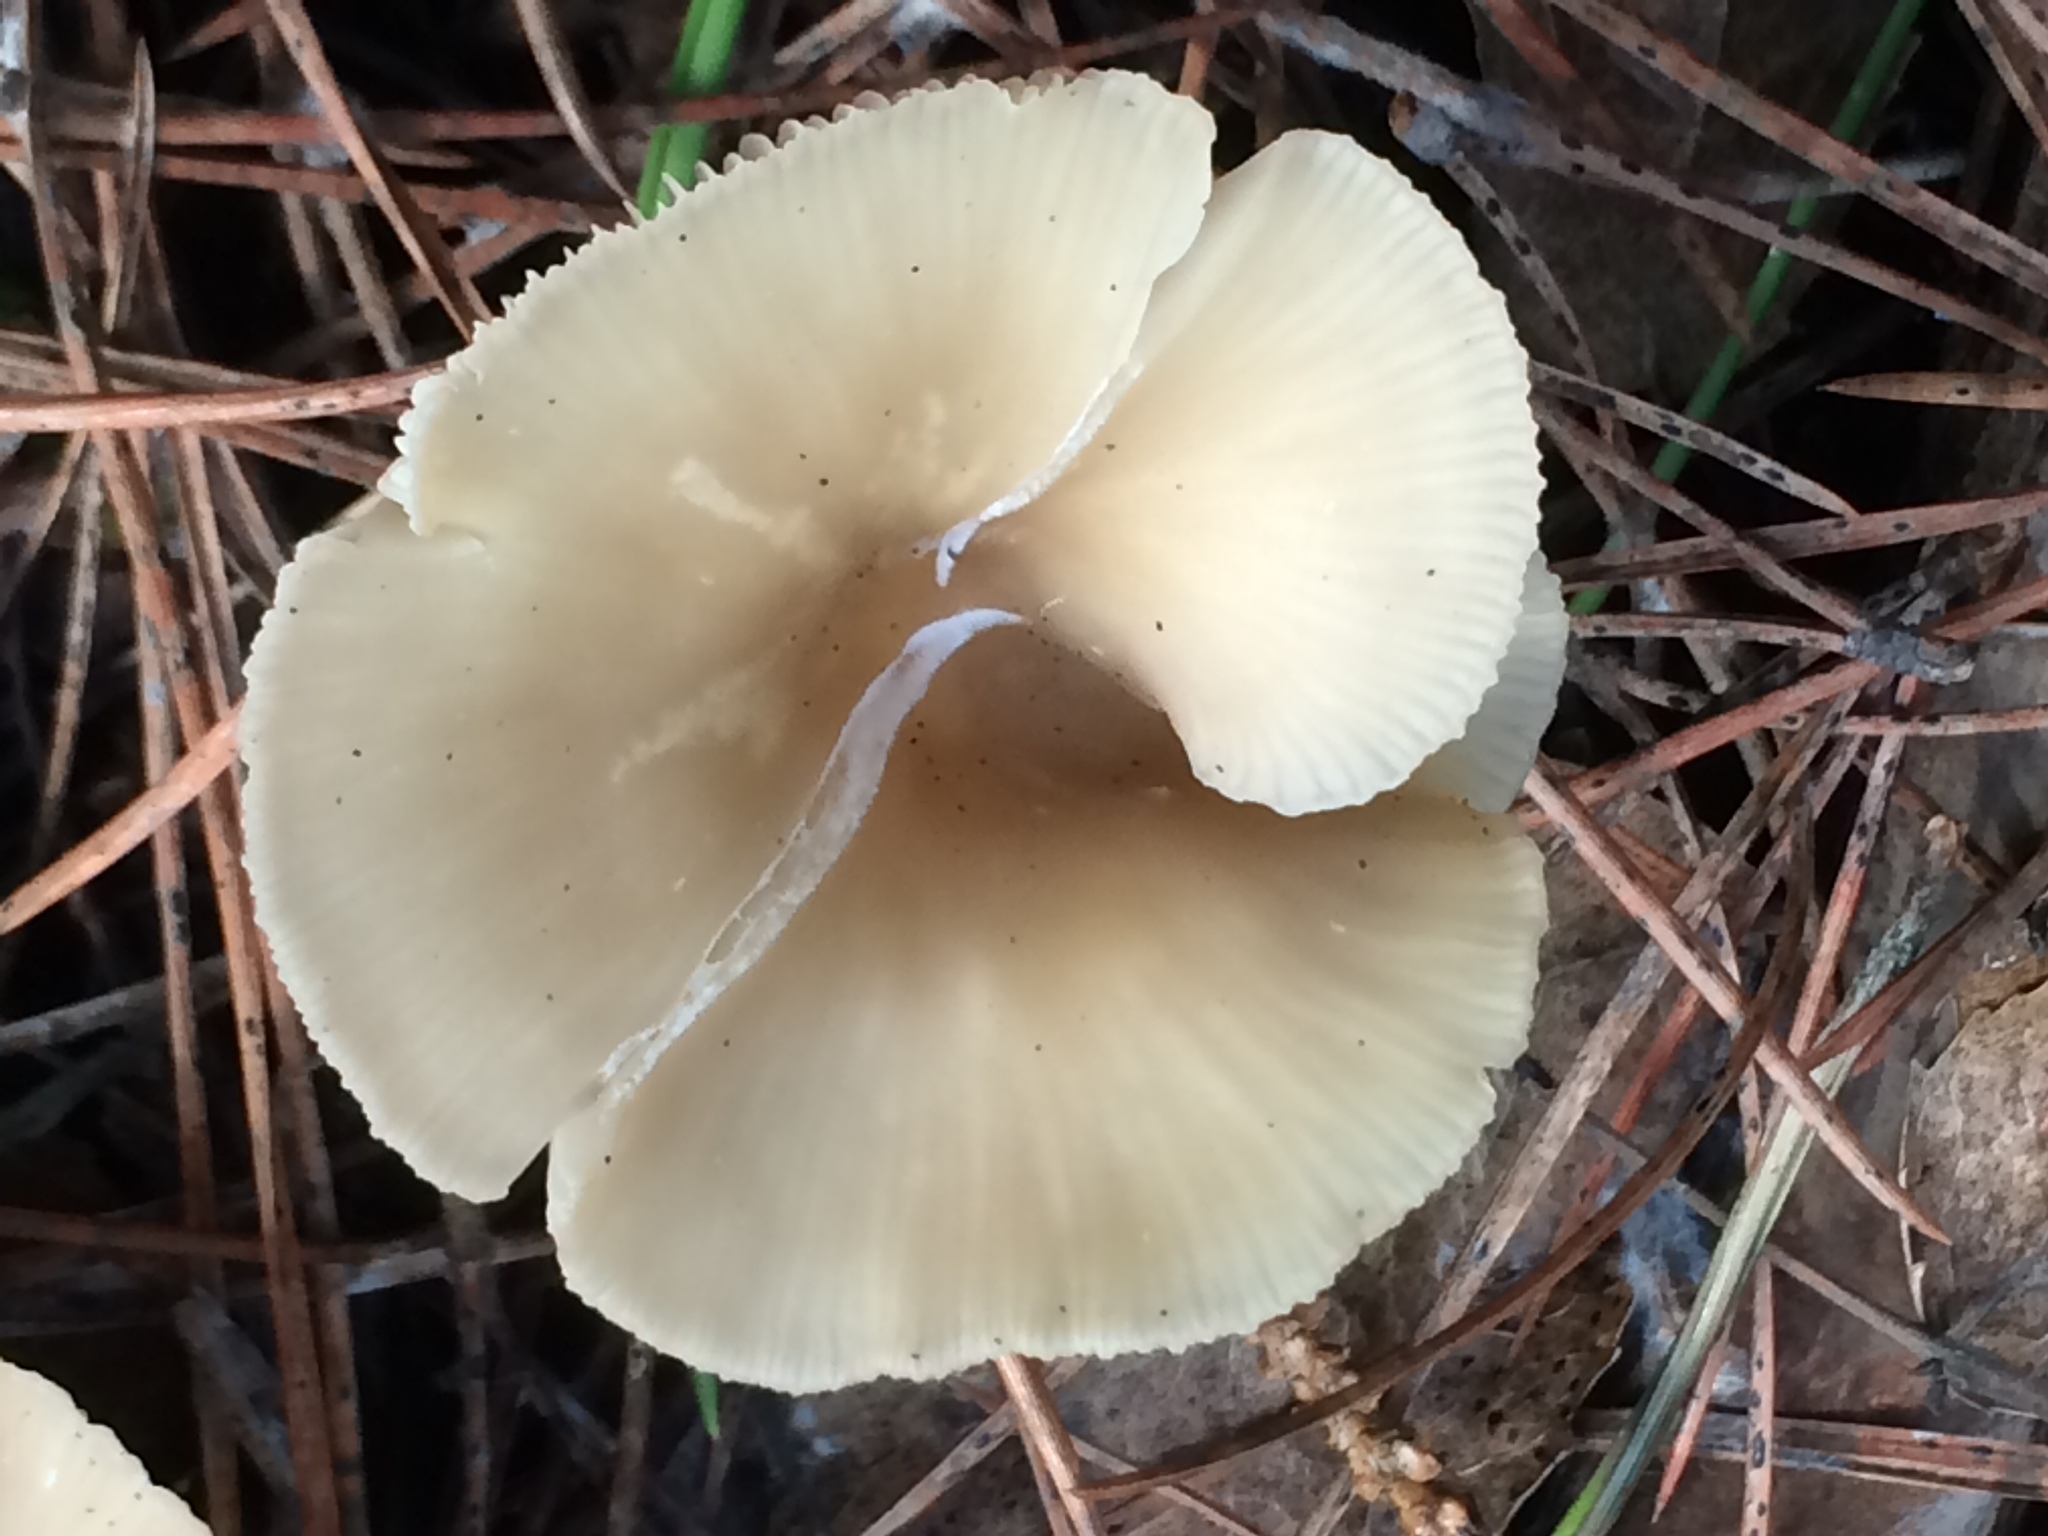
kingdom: Fungi
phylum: Basidiomycota
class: Agaricomycetes
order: Agaricales
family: Tricholomataceae
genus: Clitocybe
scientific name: Clitocybe fragrans
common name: Fragrant funnel
